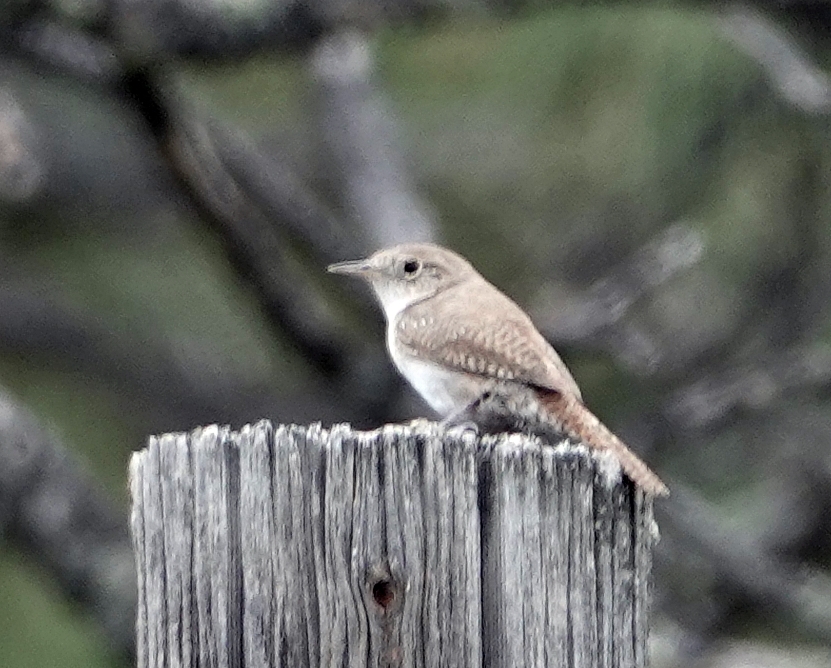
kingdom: Animalia
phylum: Chordata
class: Aves
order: Passeriformes
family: Troglodytidae
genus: Troglodytes
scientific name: Troglodytes aedon
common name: House wren
